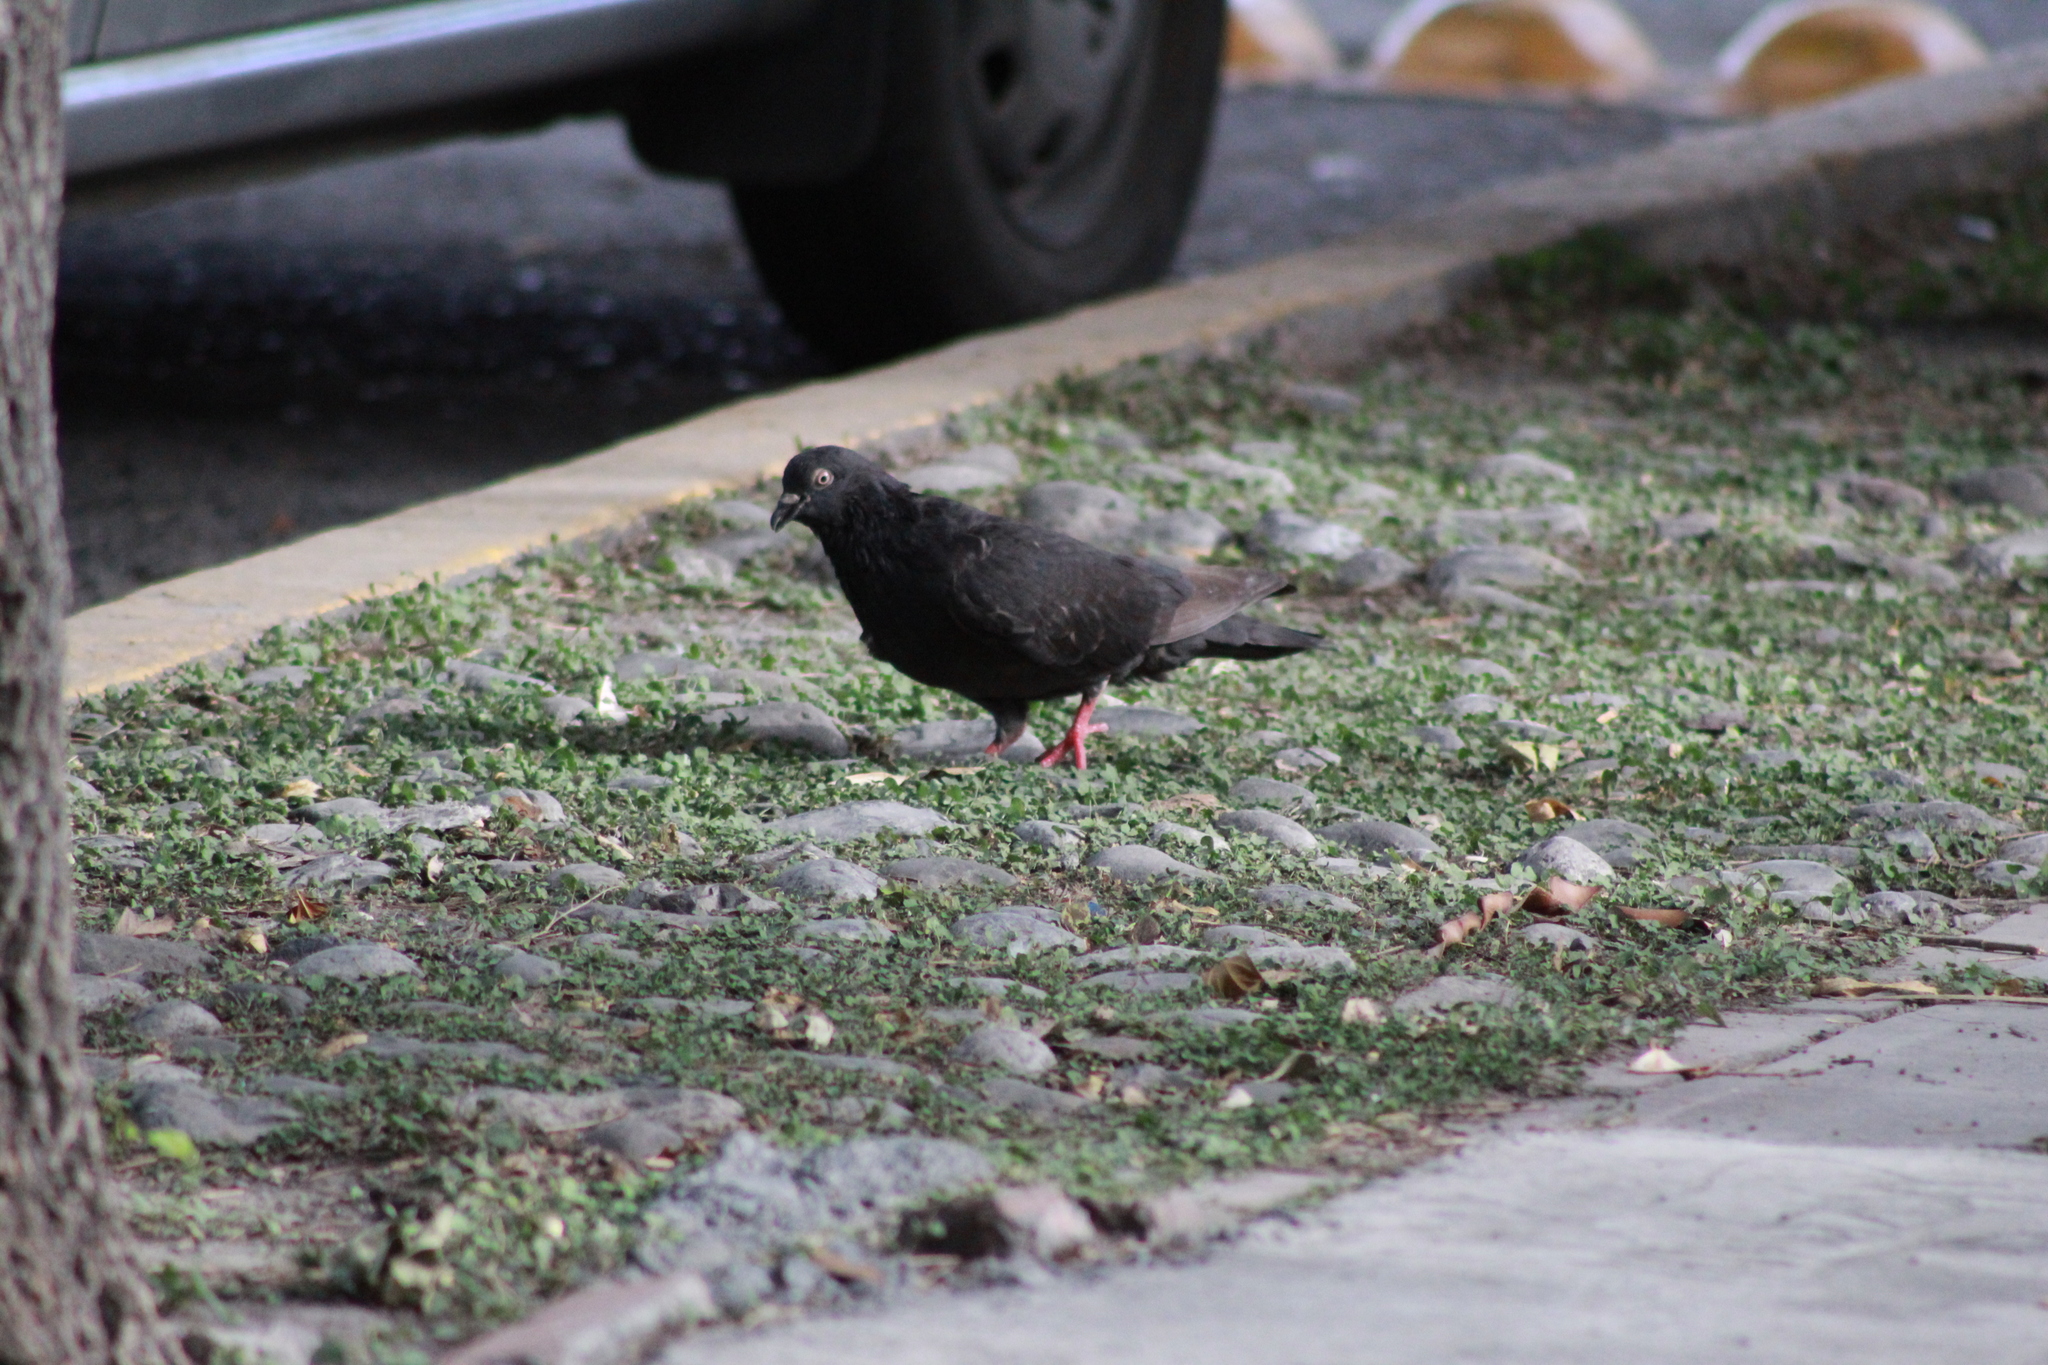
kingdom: Animalia
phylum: Chordata
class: Aves
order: Columbiformes
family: Columbidae
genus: Columba
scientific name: Columba livia
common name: Rock pigeon
